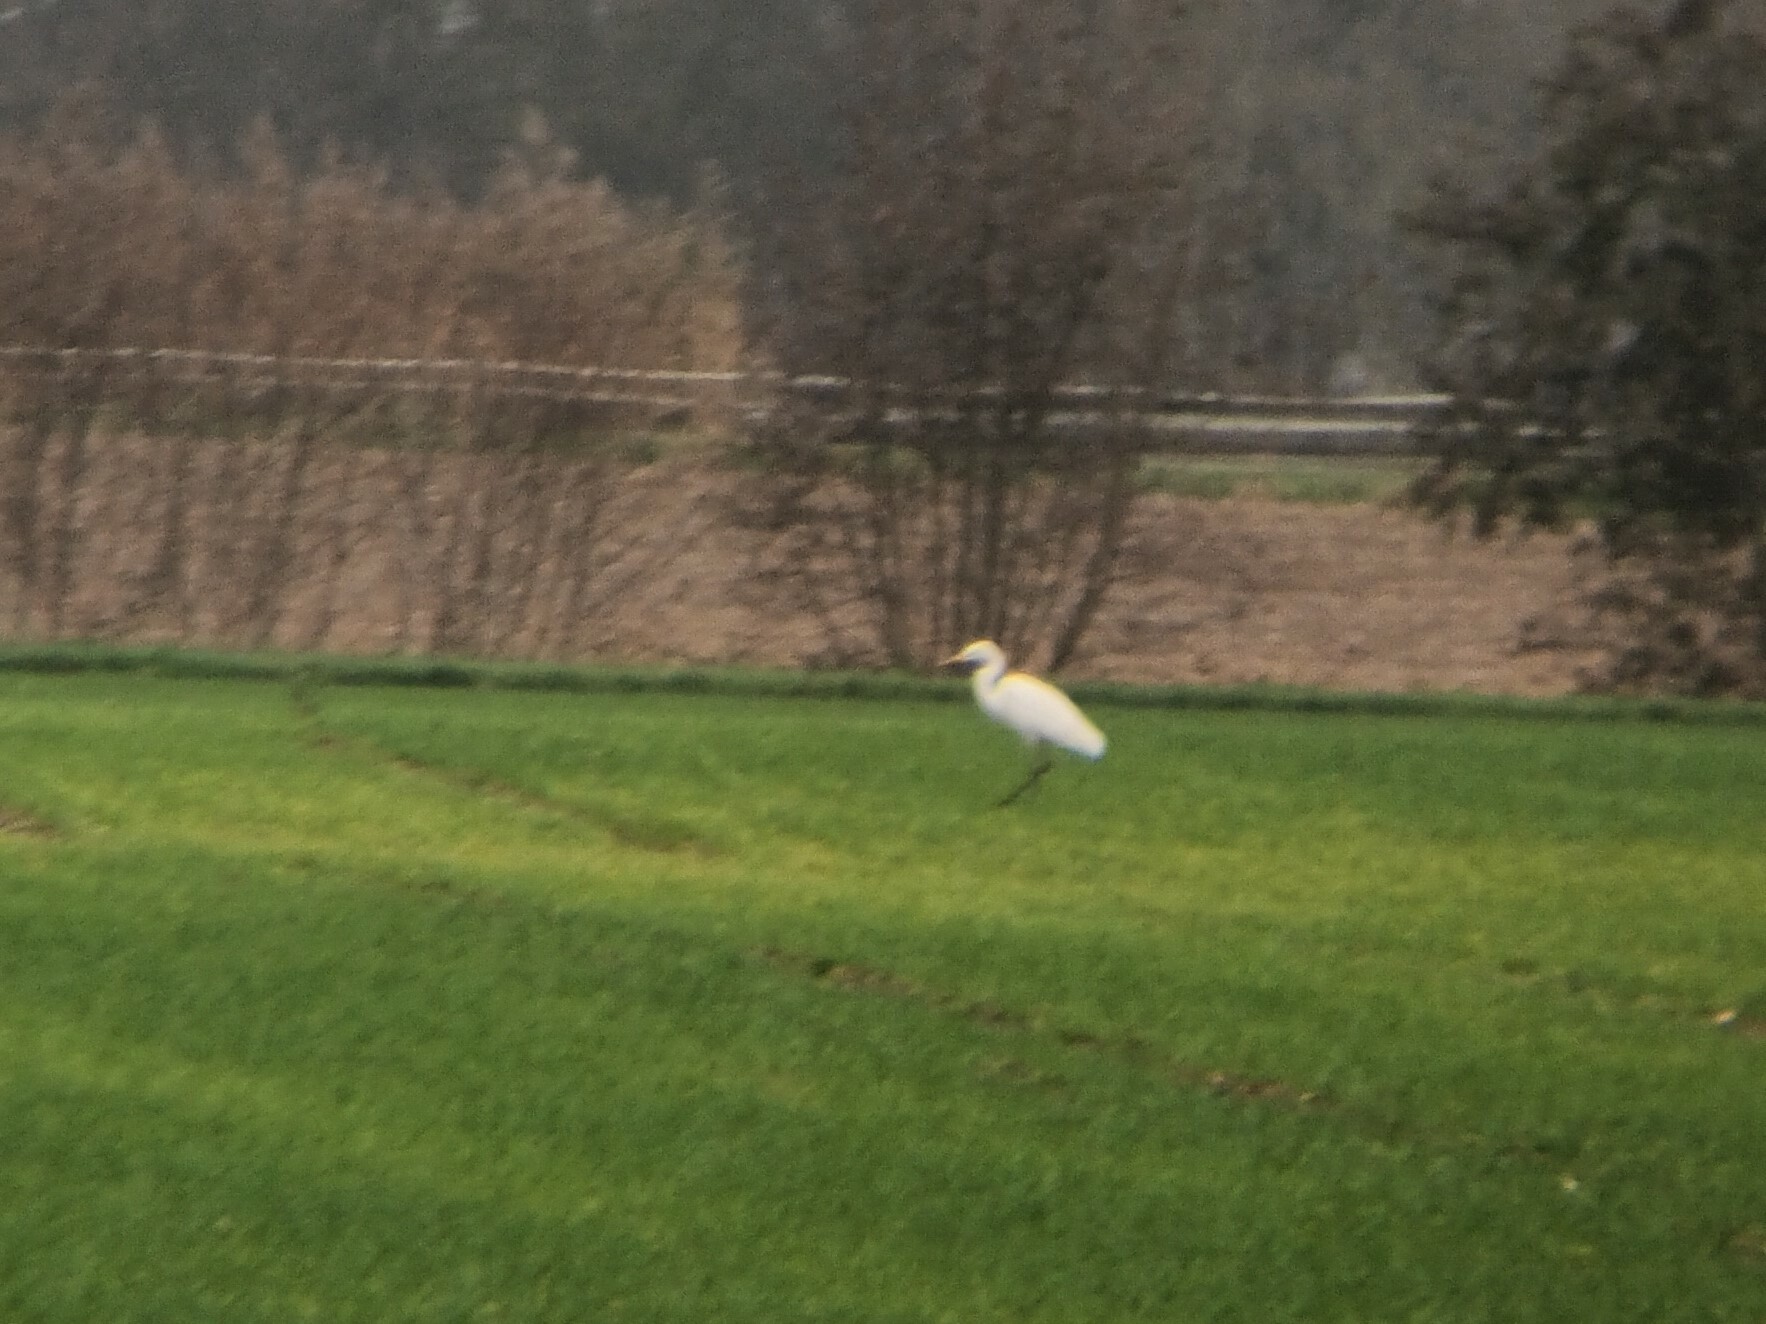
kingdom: Animalia
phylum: Chordata
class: Aves
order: Pelecaniformes
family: Ardeidae
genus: Ardea
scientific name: Ardea alba
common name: Great egret
